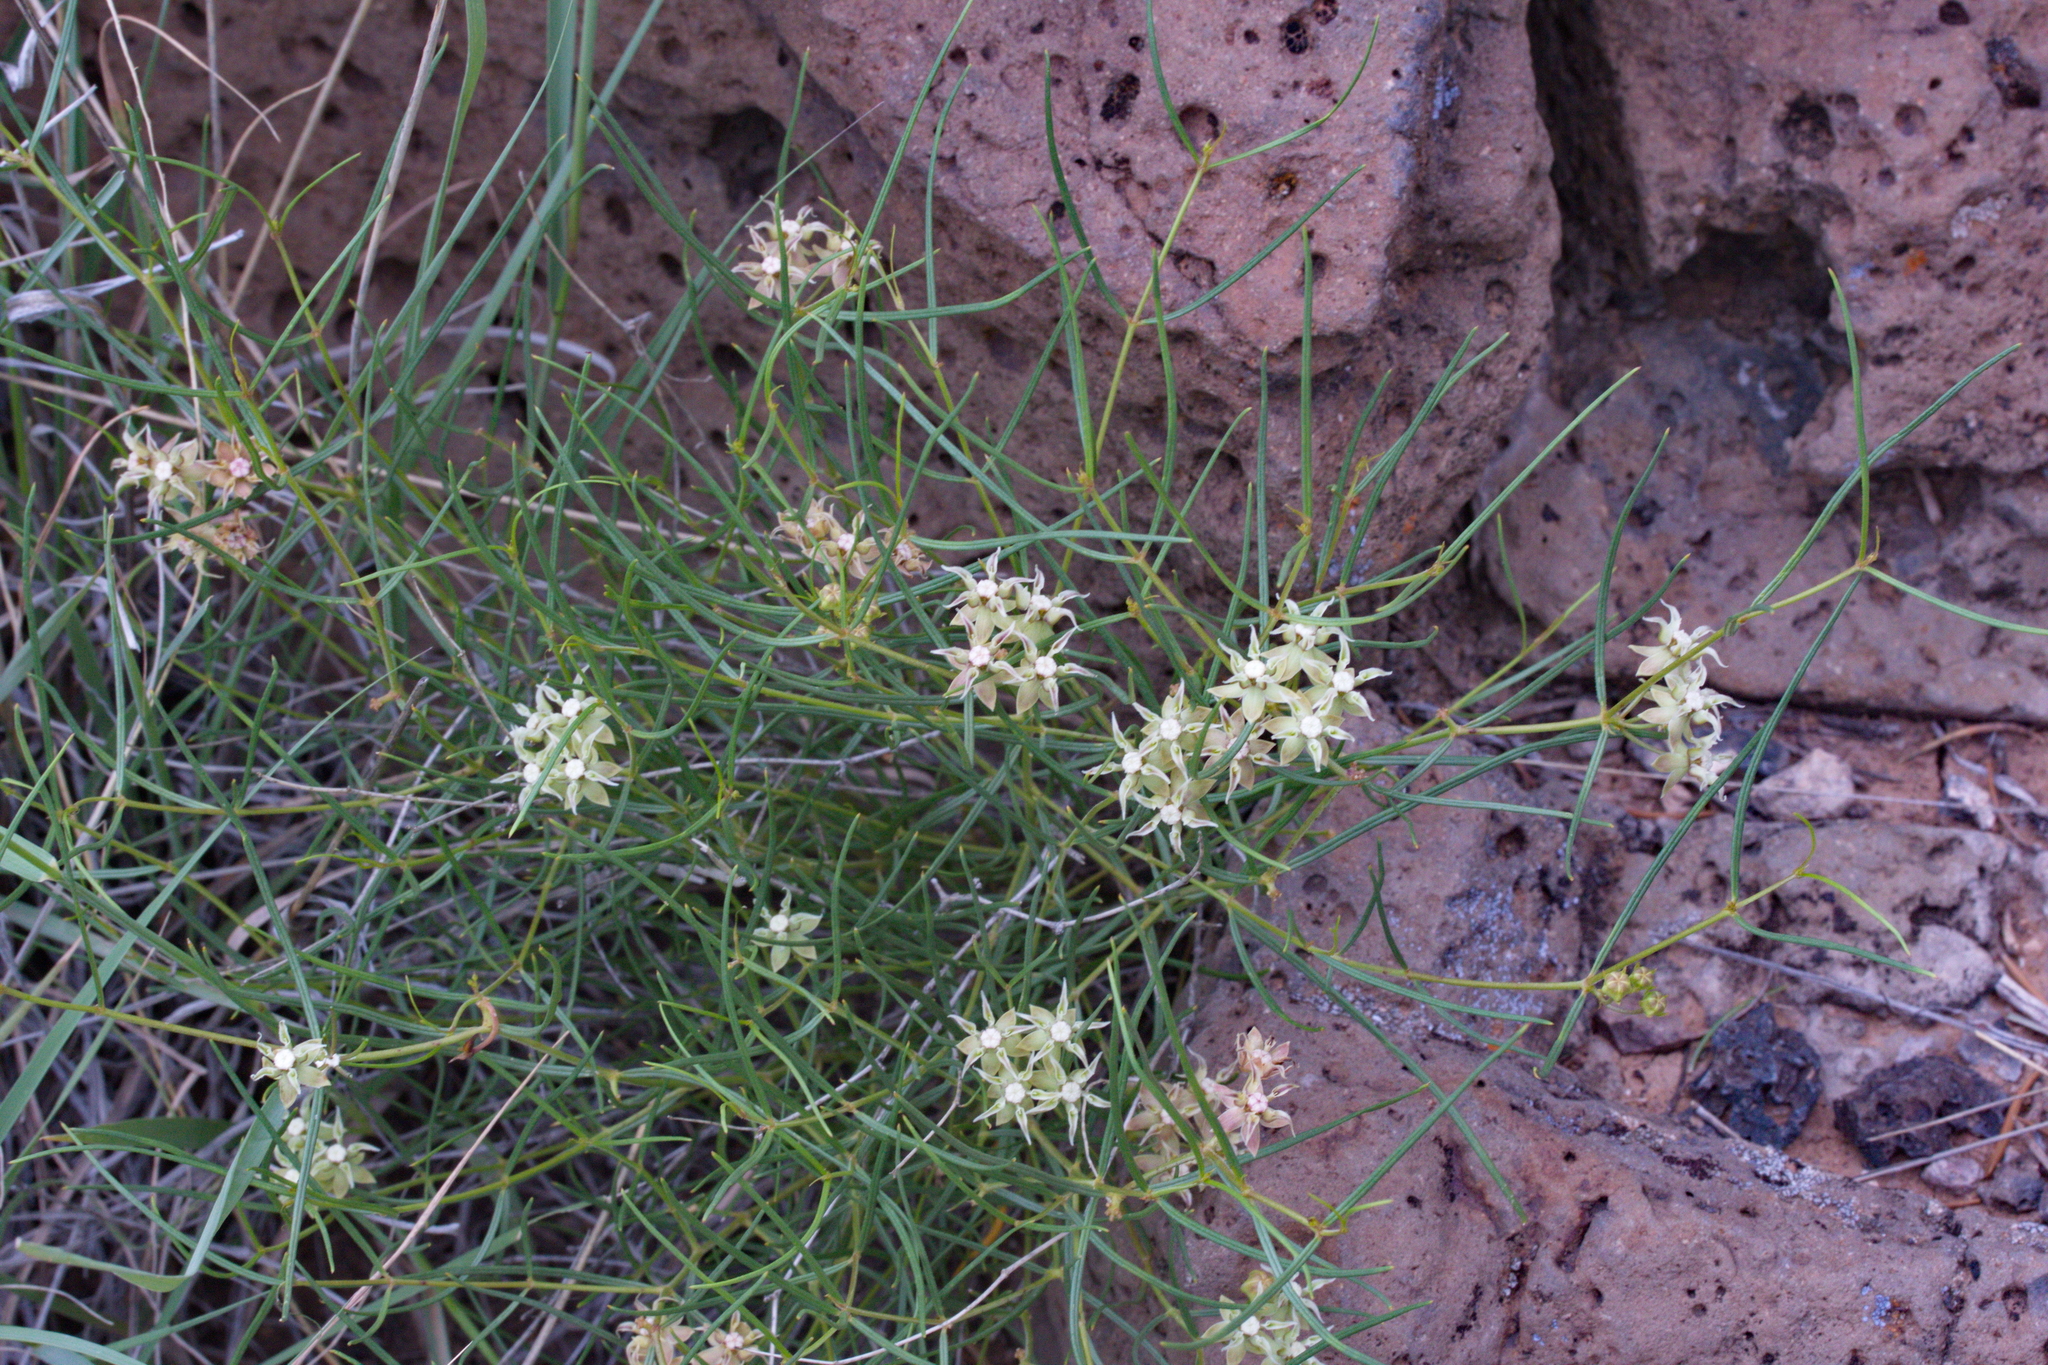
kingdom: Plantae
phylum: Tracheophyta
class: Magnoliopsida
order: Gentianales
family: Apocynaceae
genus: Asclepias
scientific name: Asclepias macrotis
